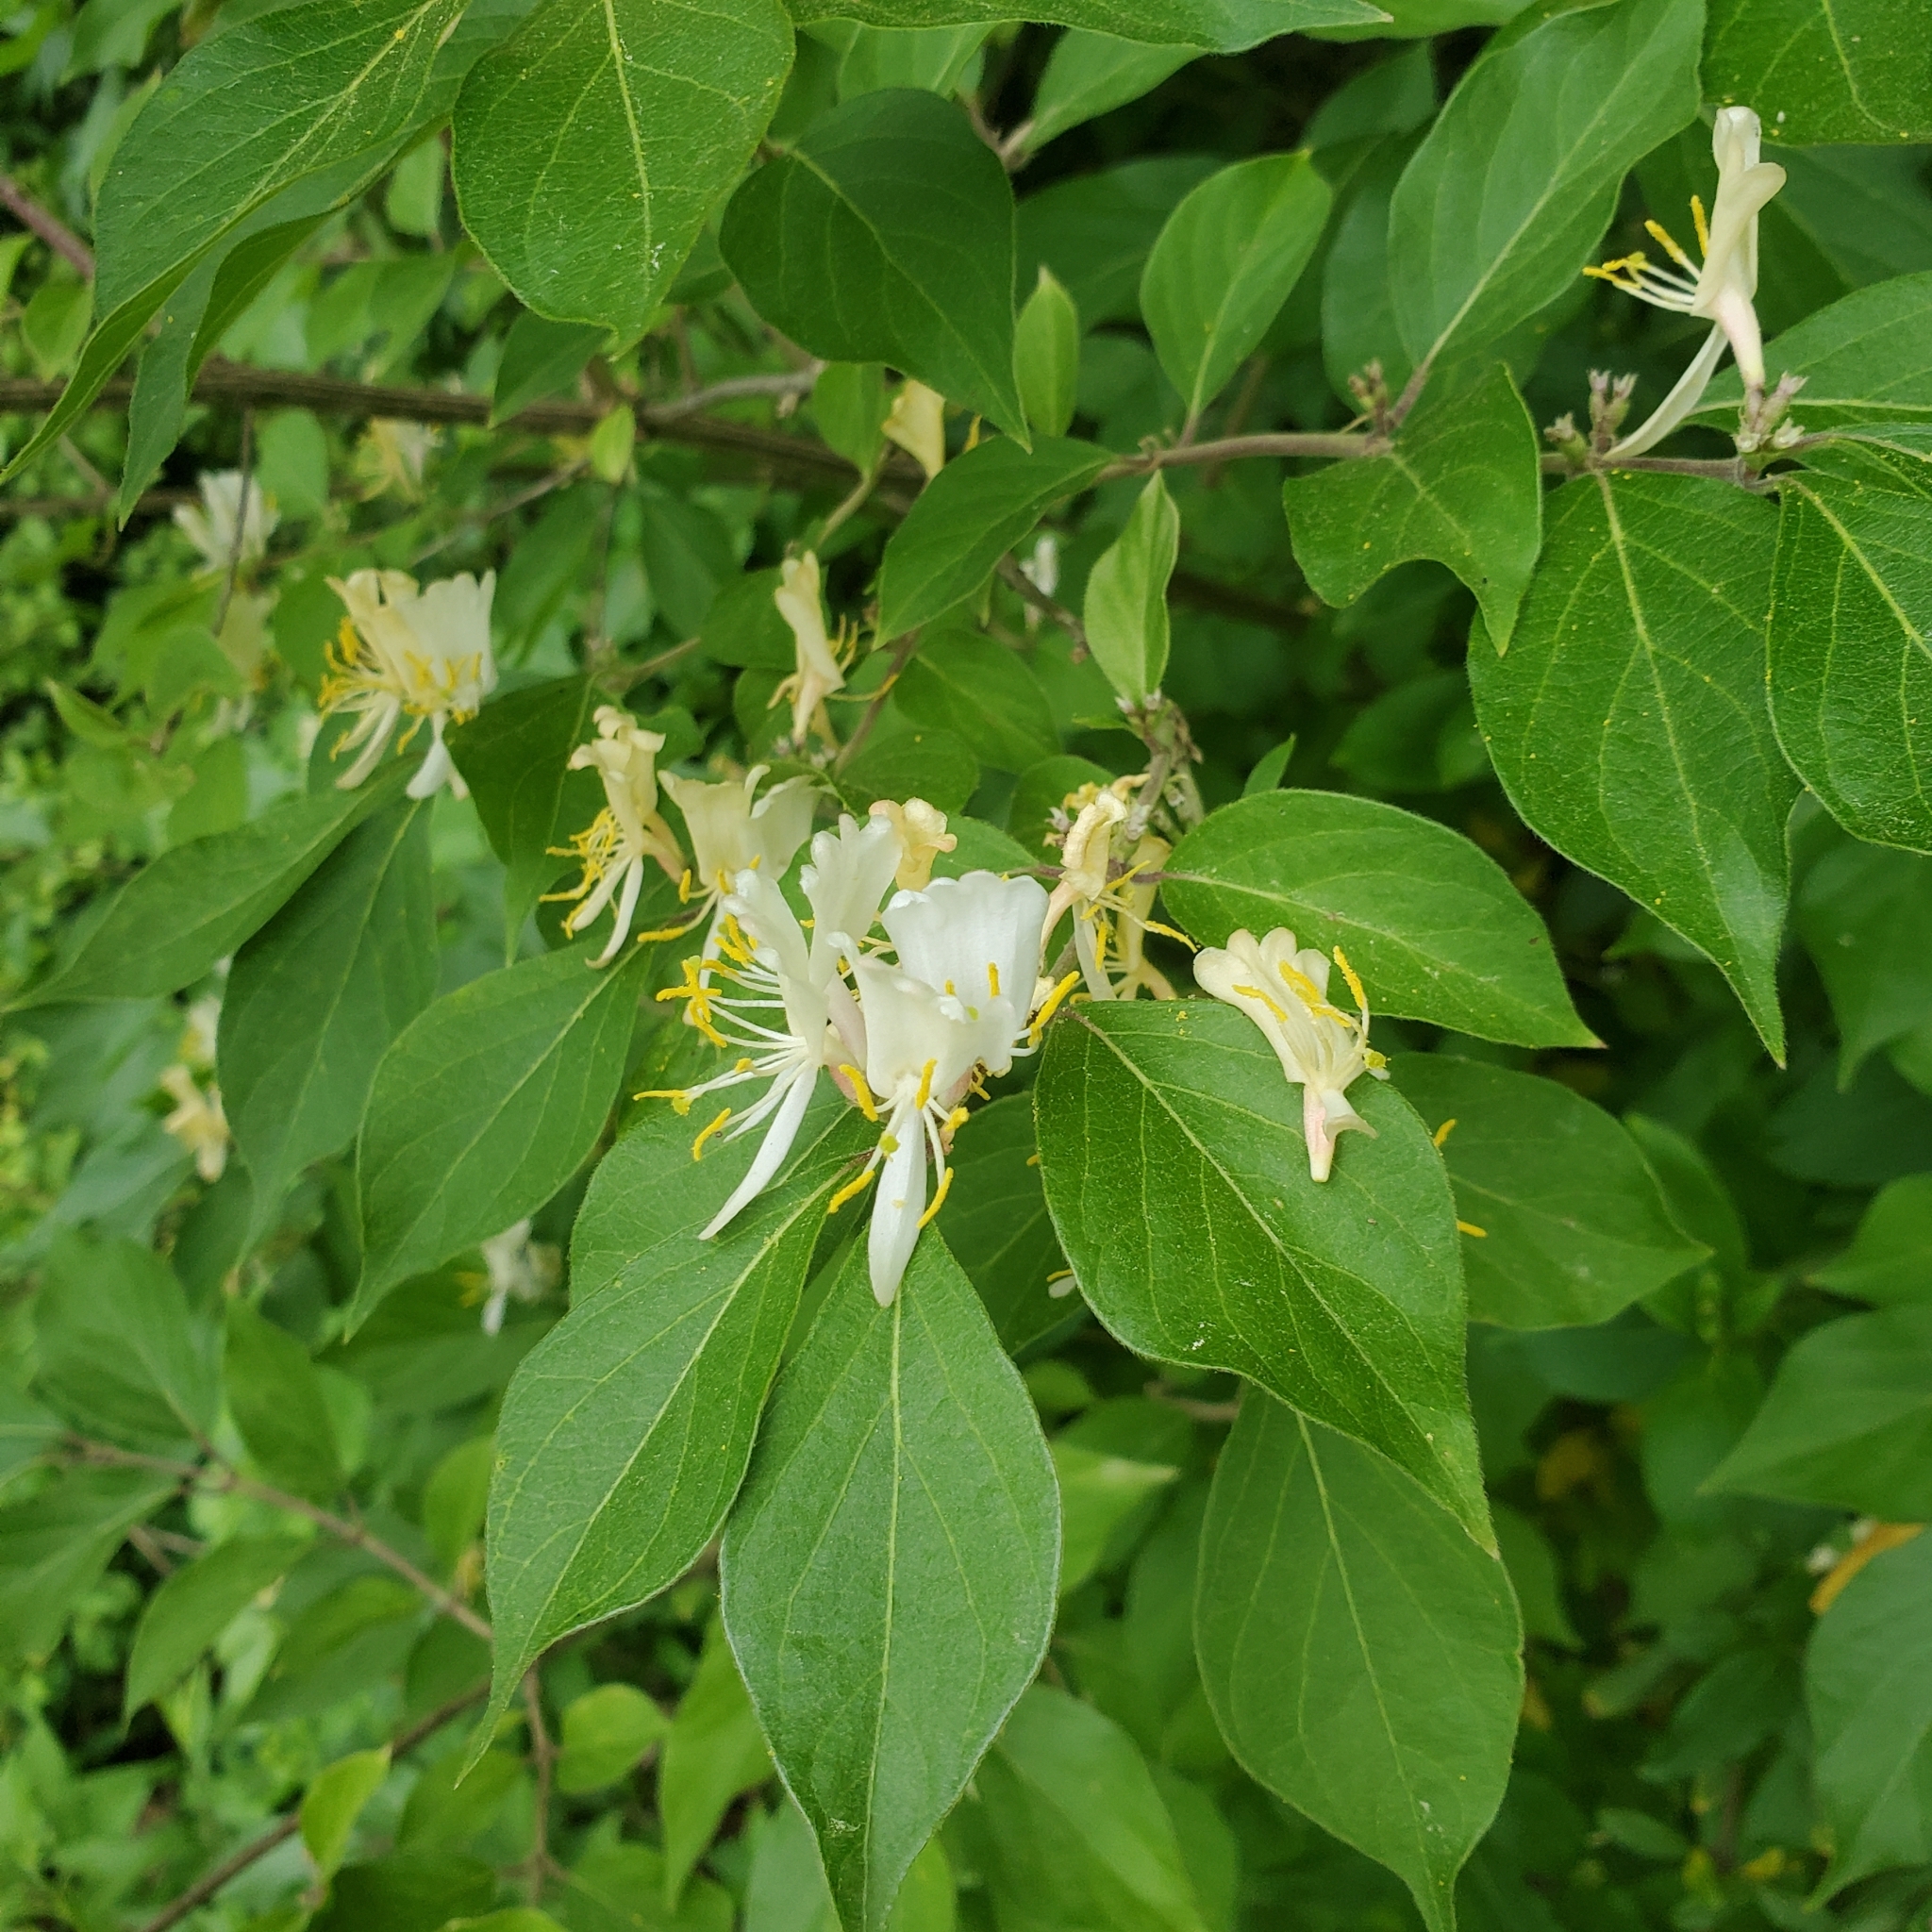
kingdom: Plantae
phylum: Tracheophyta
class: Magnoliopsida
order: Dipsacales
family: Caprifoliaceae
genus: Lonicera
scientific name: Lonicera maackii
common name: Amur honeysuckle
